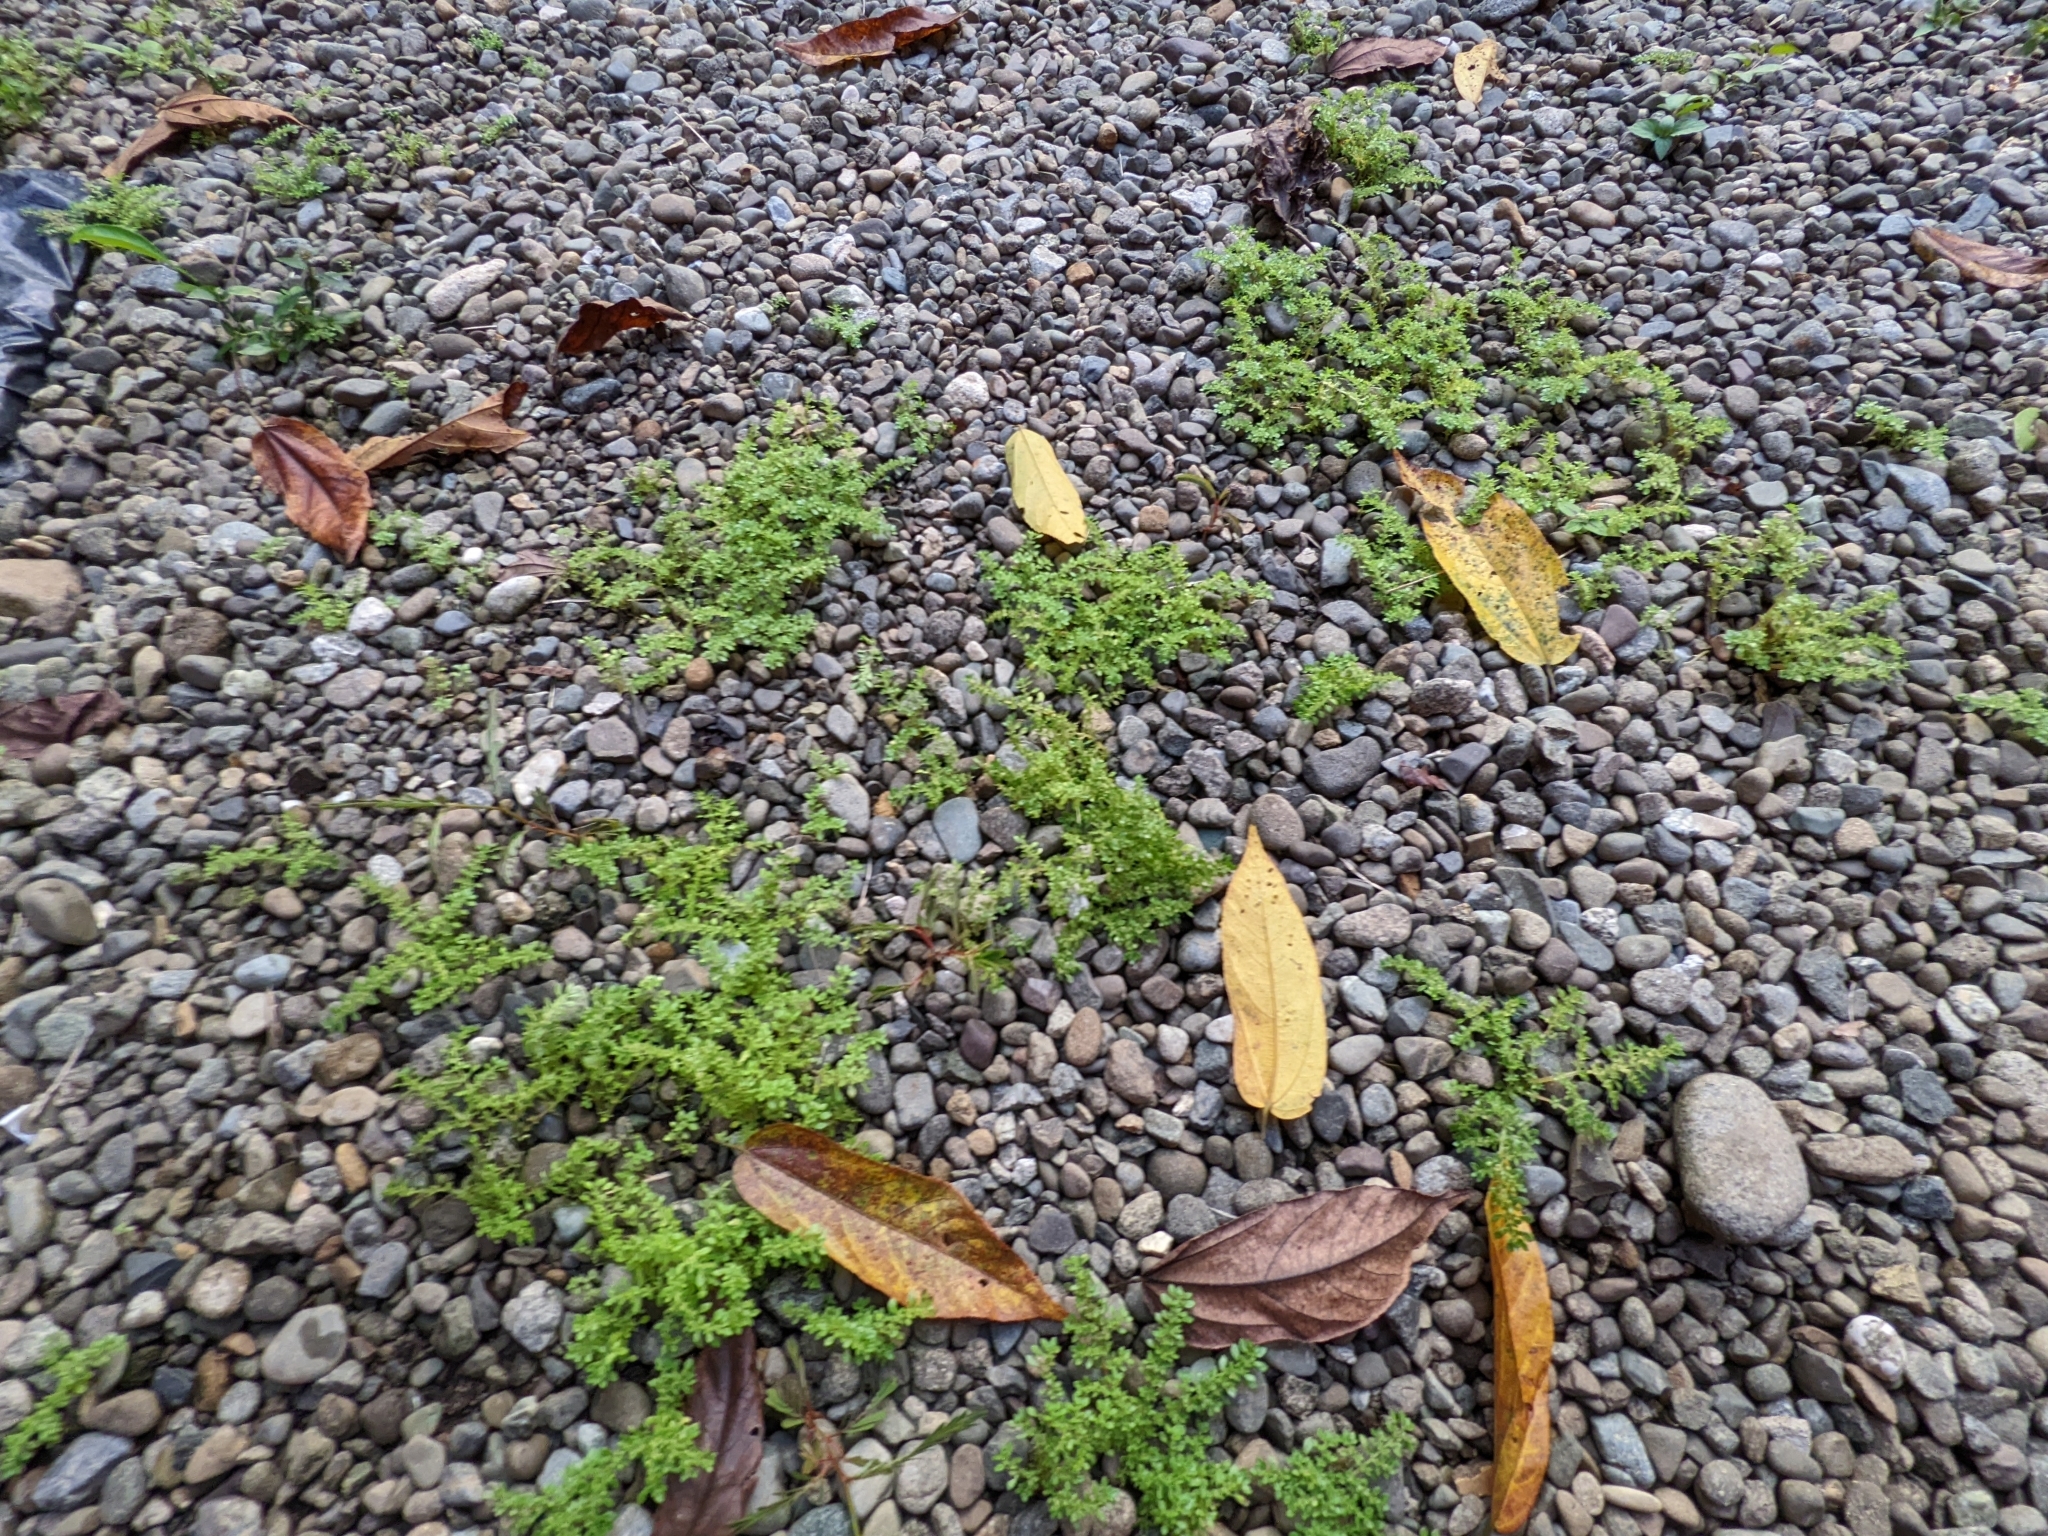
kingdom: Plantae
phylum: Tracheophyta
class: Magnoliopsida
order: Rosales
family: Urticaceae
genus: Pilea
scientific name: Pilea microphylla
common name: Artillery-plant
